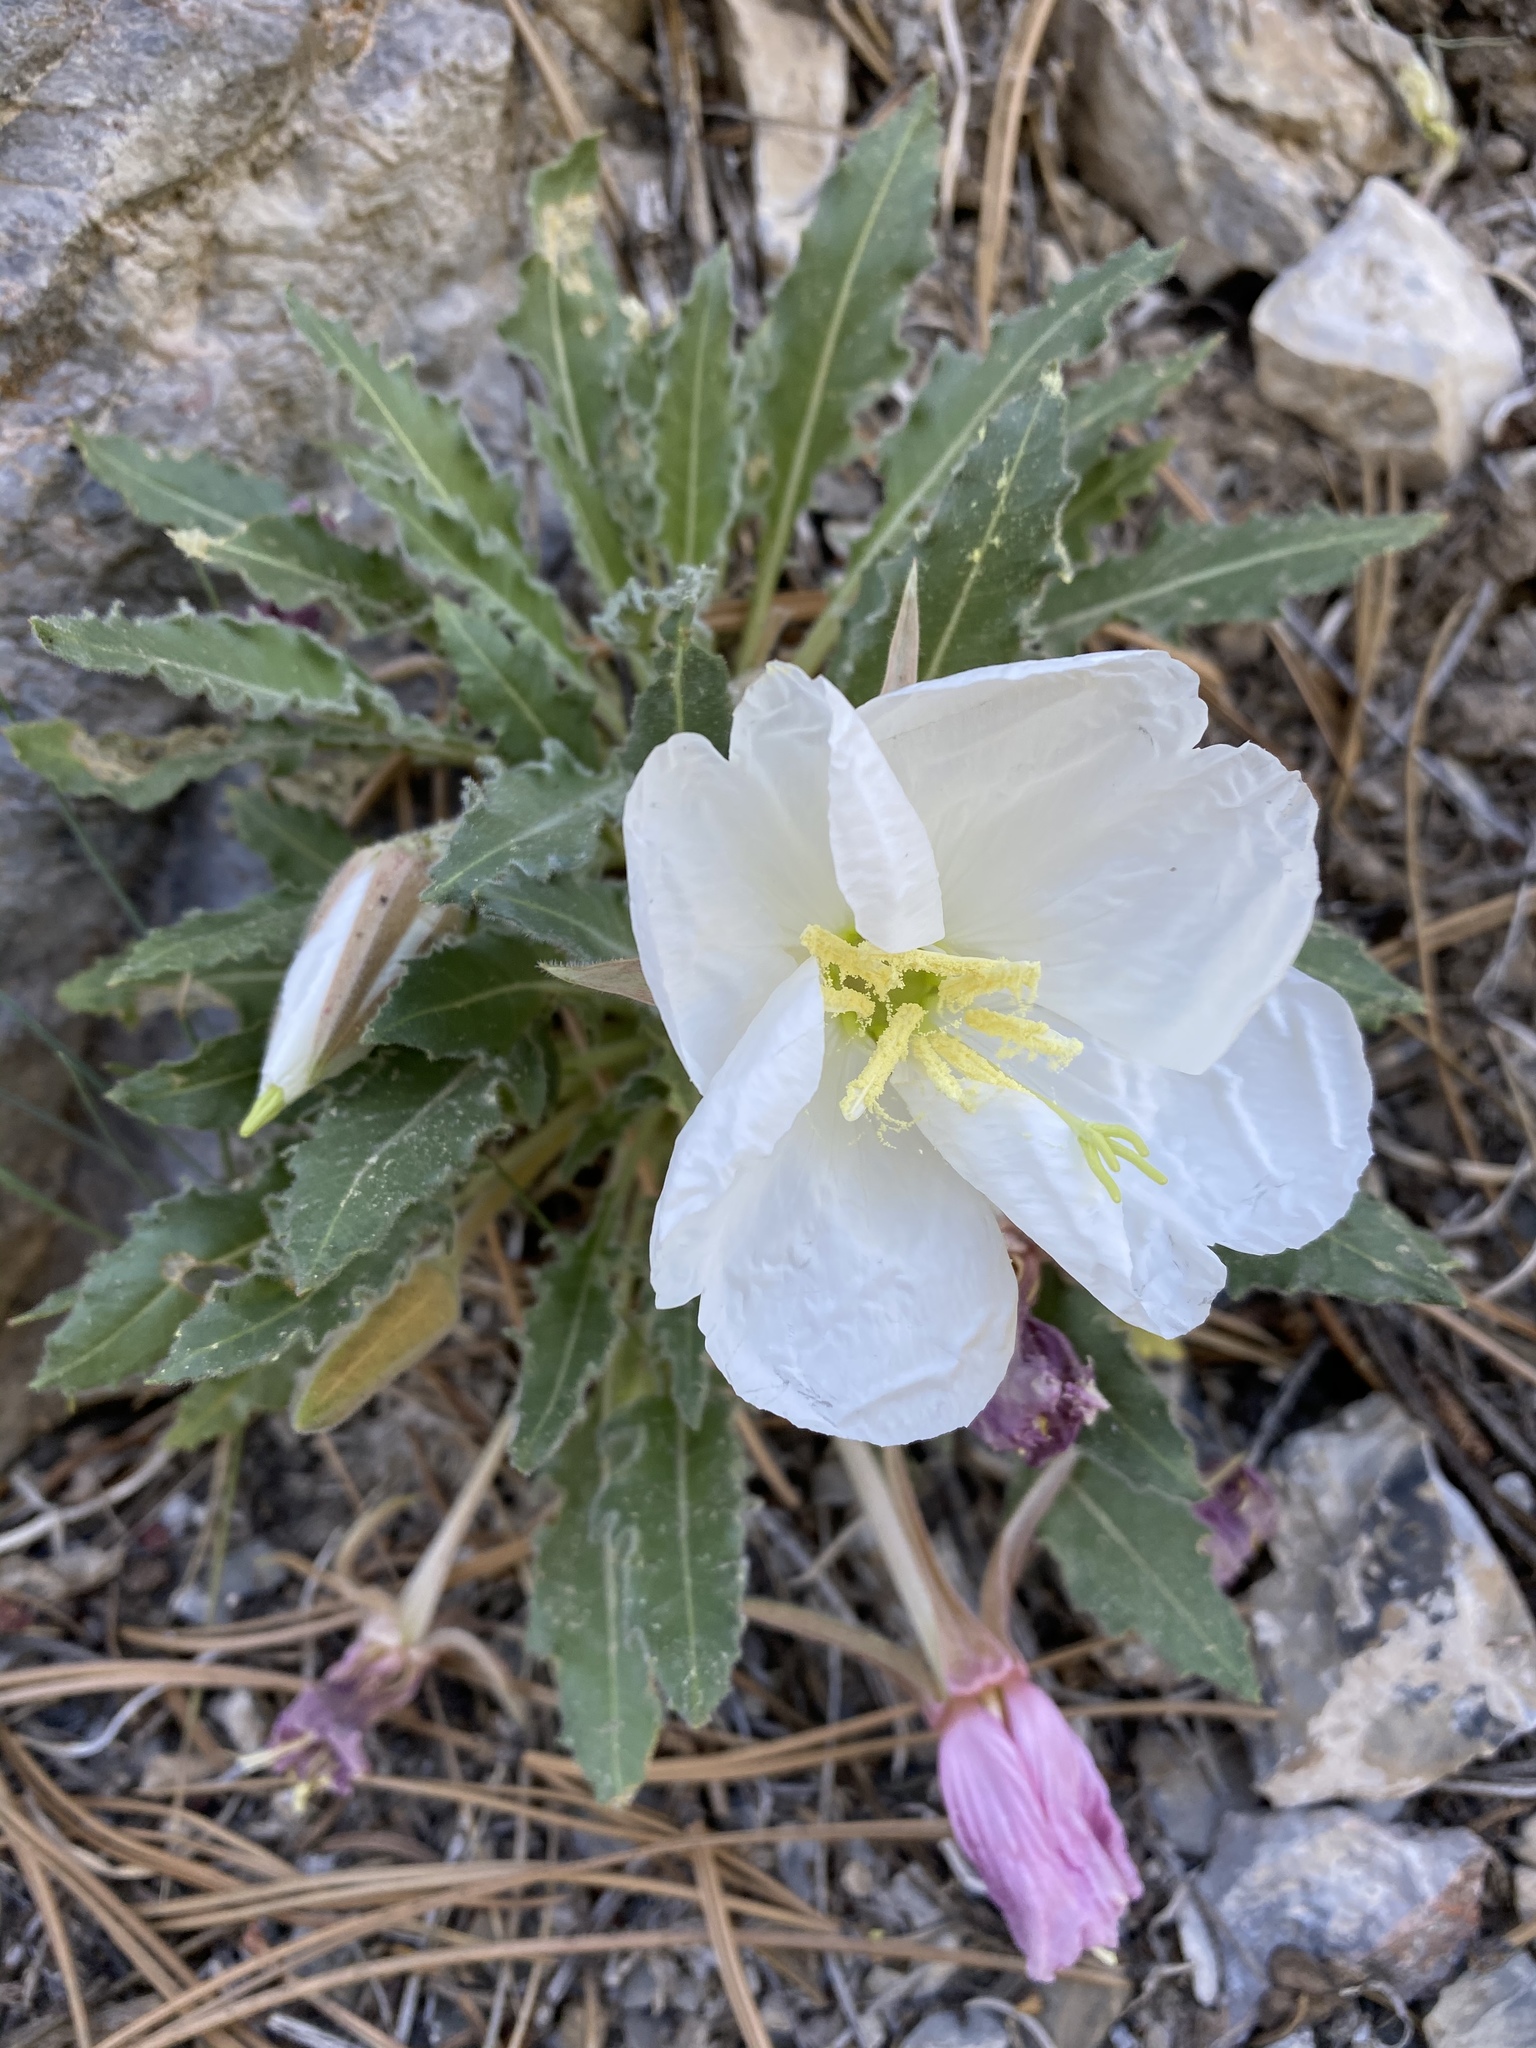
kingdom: Plantae
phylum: Tracheophyta
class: Magnoliopsida
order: Myrtales
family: Onagraceae
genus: Oenothera
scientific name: Oenothera cespitosa
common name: Tufted evening-primrose
